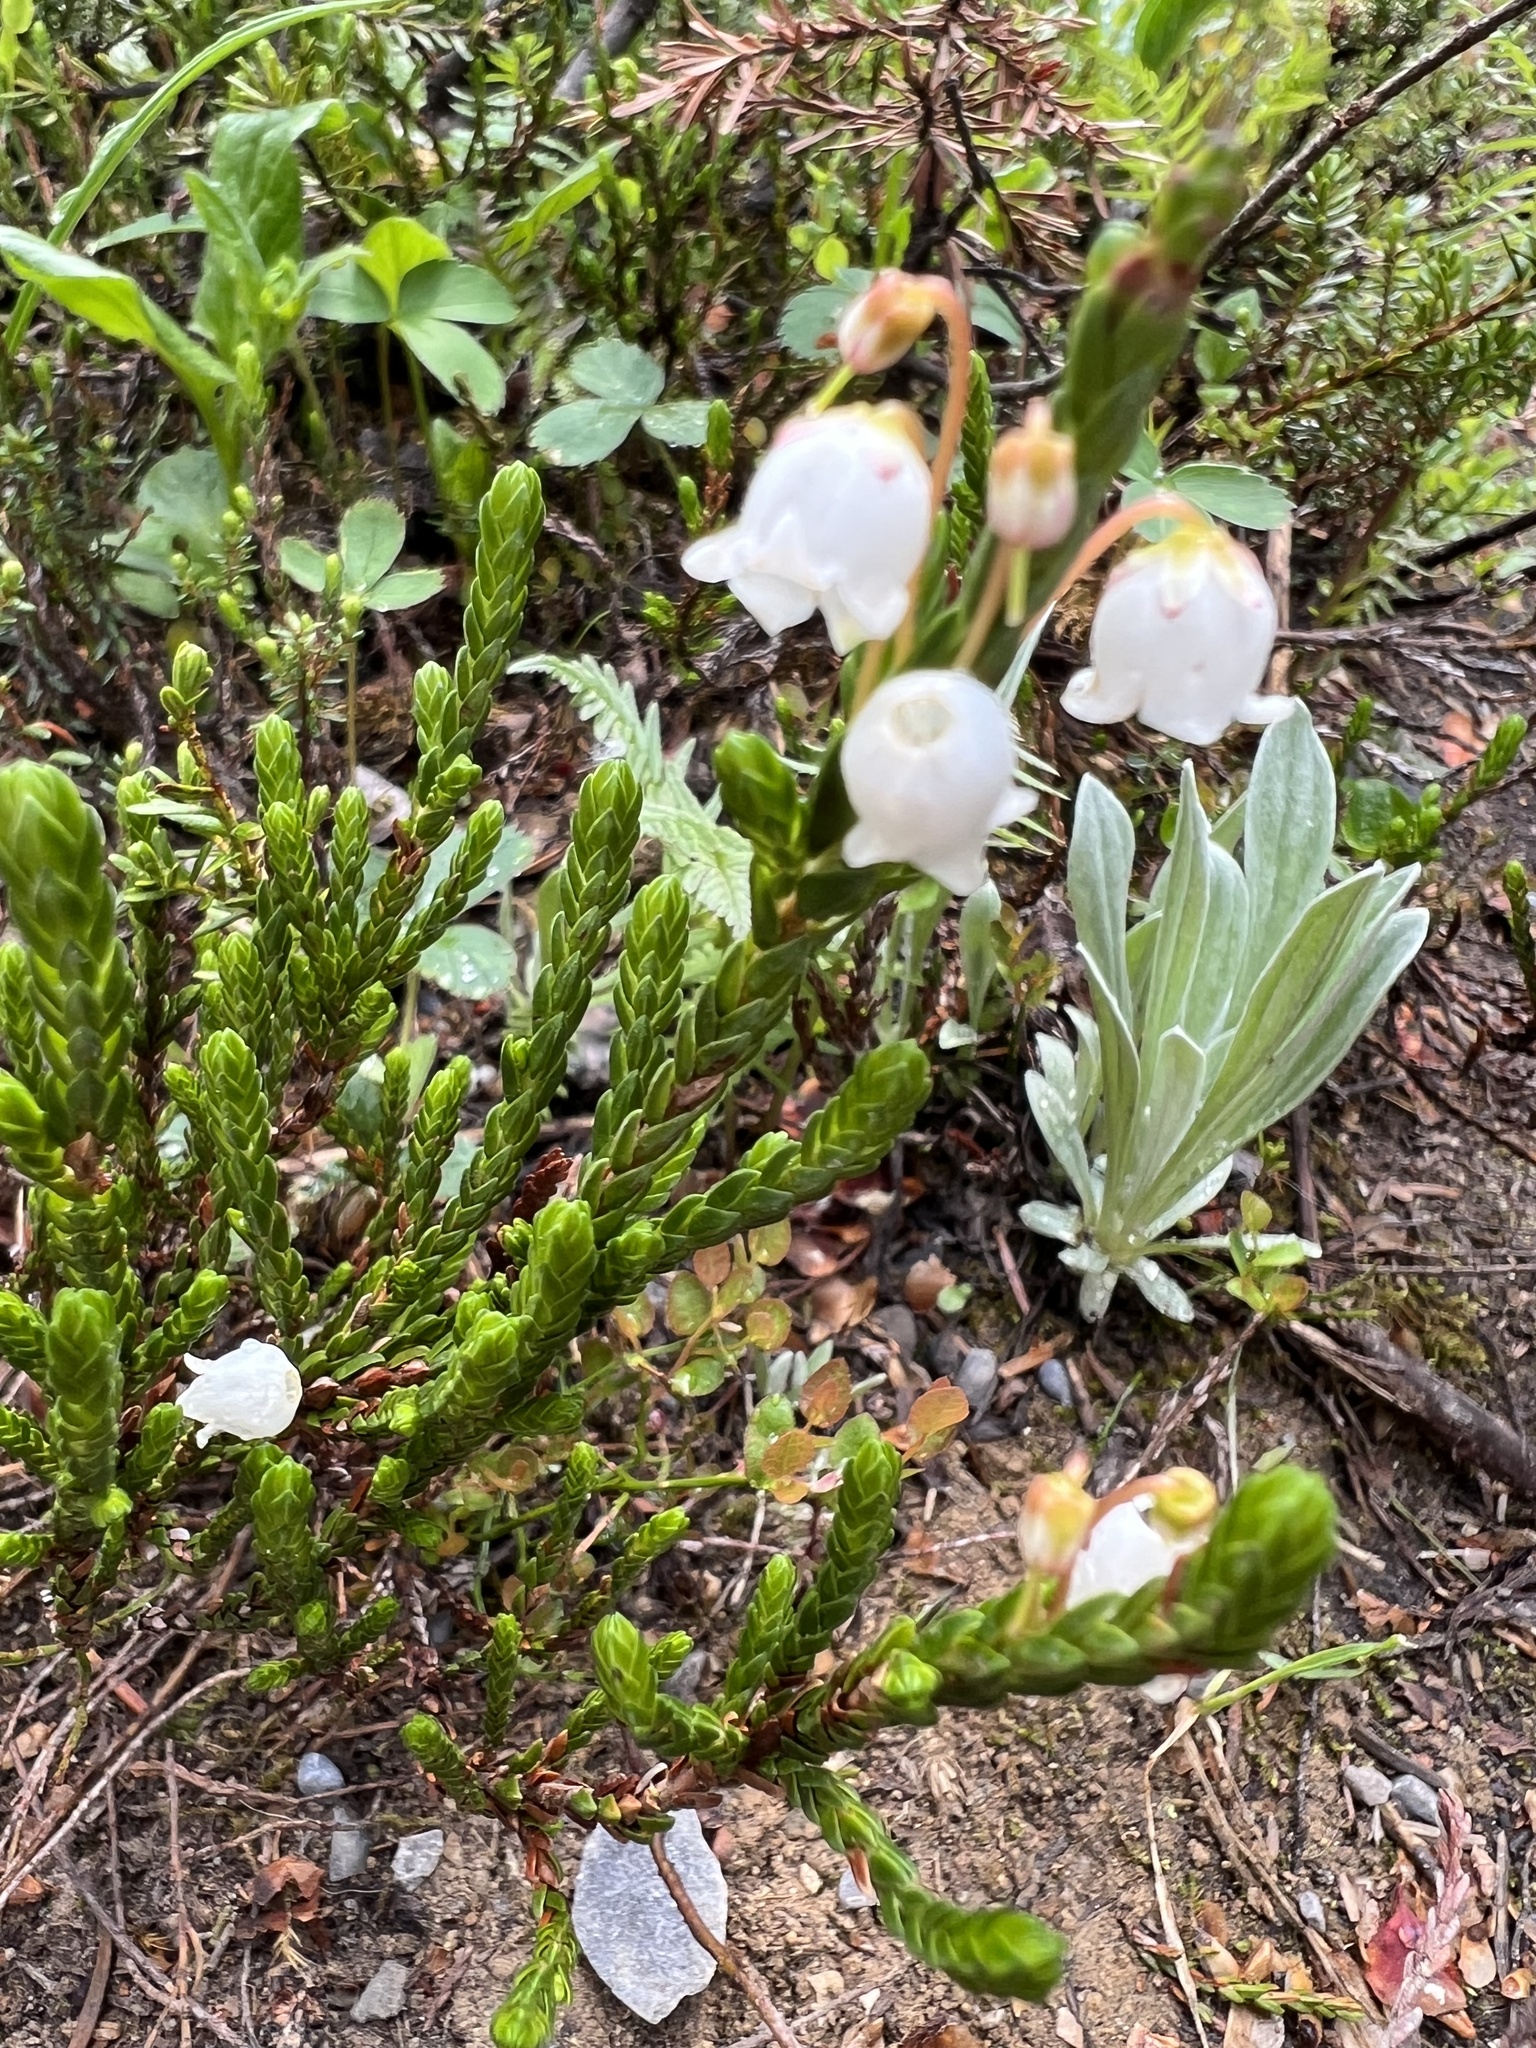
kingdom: Plantae
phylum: Tracheophyta
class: Magnoliopsida
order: Ericales
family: Ericaceae
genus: Cassiope
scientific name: Cassiope mertensiana
